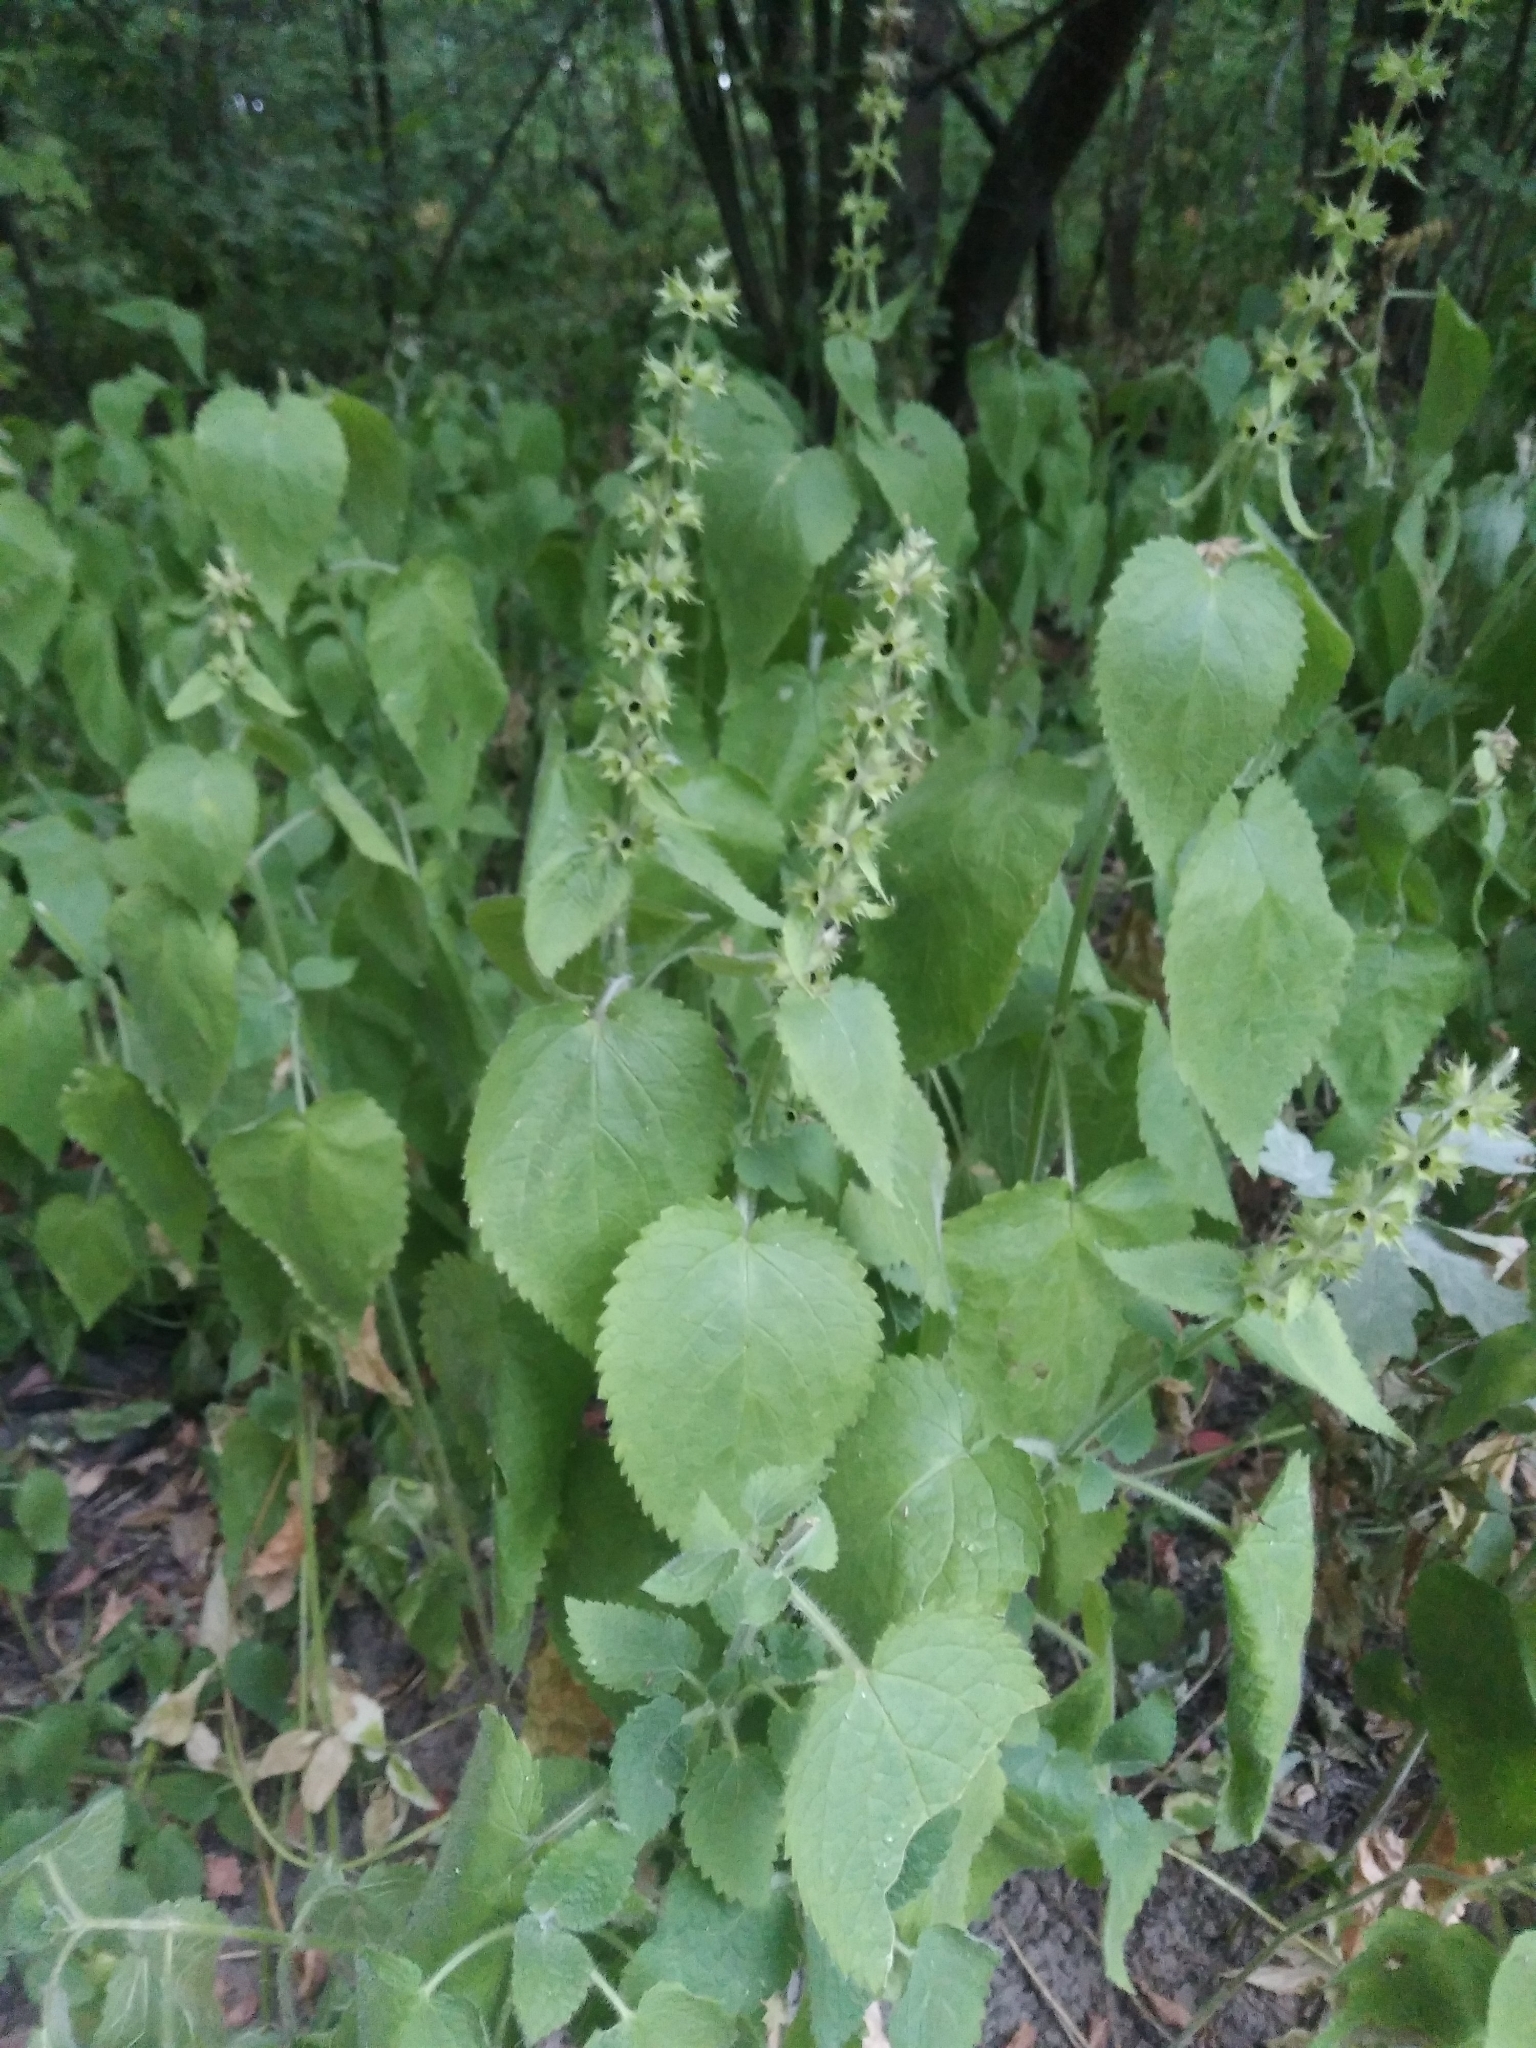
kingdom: Plantae
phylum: Tracheophyta
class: Magnoliopsida
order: Lamiales
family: Lamiaceae
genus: Stachys
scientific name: Stachys sylvatica
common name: Hedge woundwort
